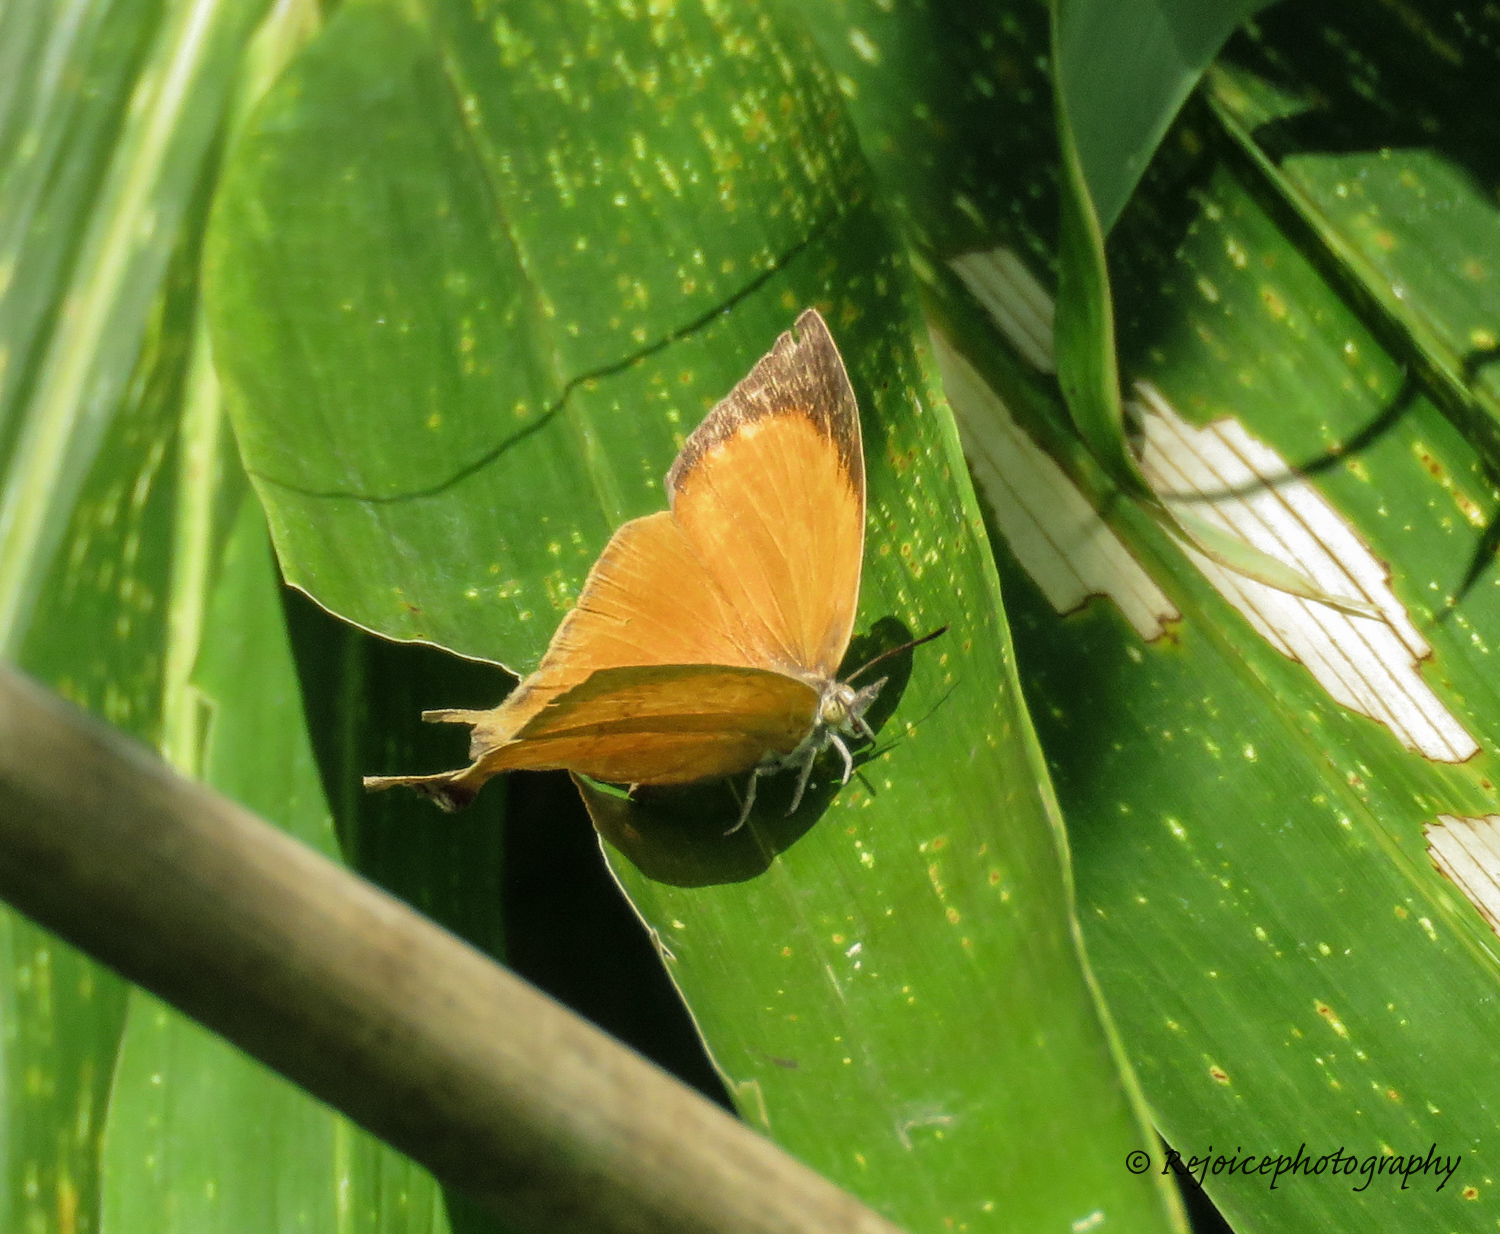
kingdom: Animalia
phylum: Arthropoda
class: Insecta
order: Lepidoptera
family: Lycaenidae
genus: Loxura
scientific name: Loxura atymnus
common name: Common yamfly
